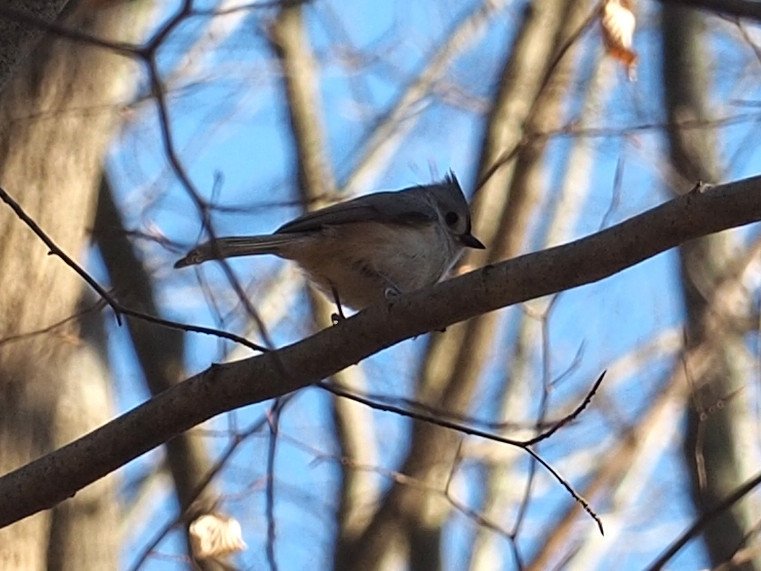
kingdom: Animalia
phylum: Chordata
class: Aves
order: Passeriformes
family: Paridae
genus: Baeolophus
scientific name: Baeolophus bicolor
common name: Tufted titmouse
